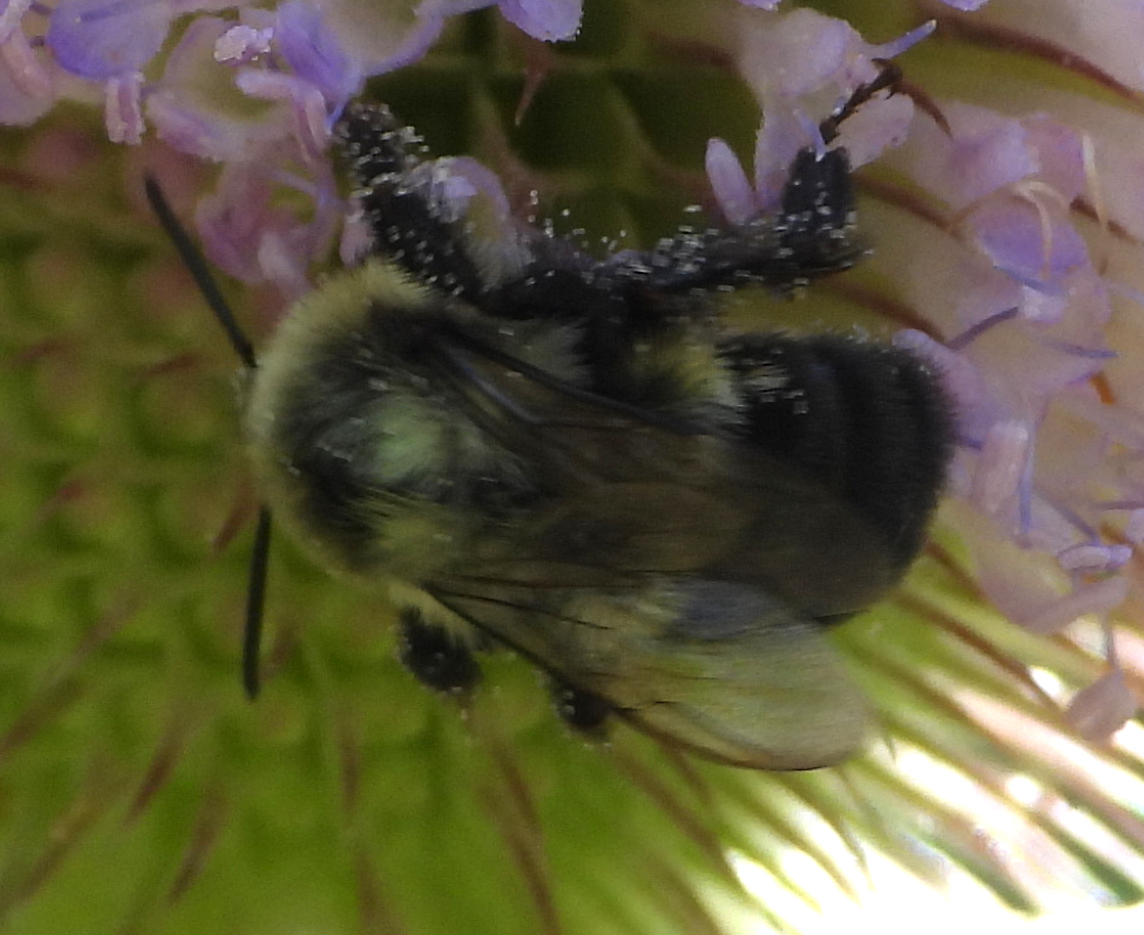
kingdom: Animalia
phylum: Arthropoda
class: Insecta
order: Hymenoptera
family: Apidae
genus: Bombus
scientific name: Bombus impatiens
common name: Common eastern bumble bee
